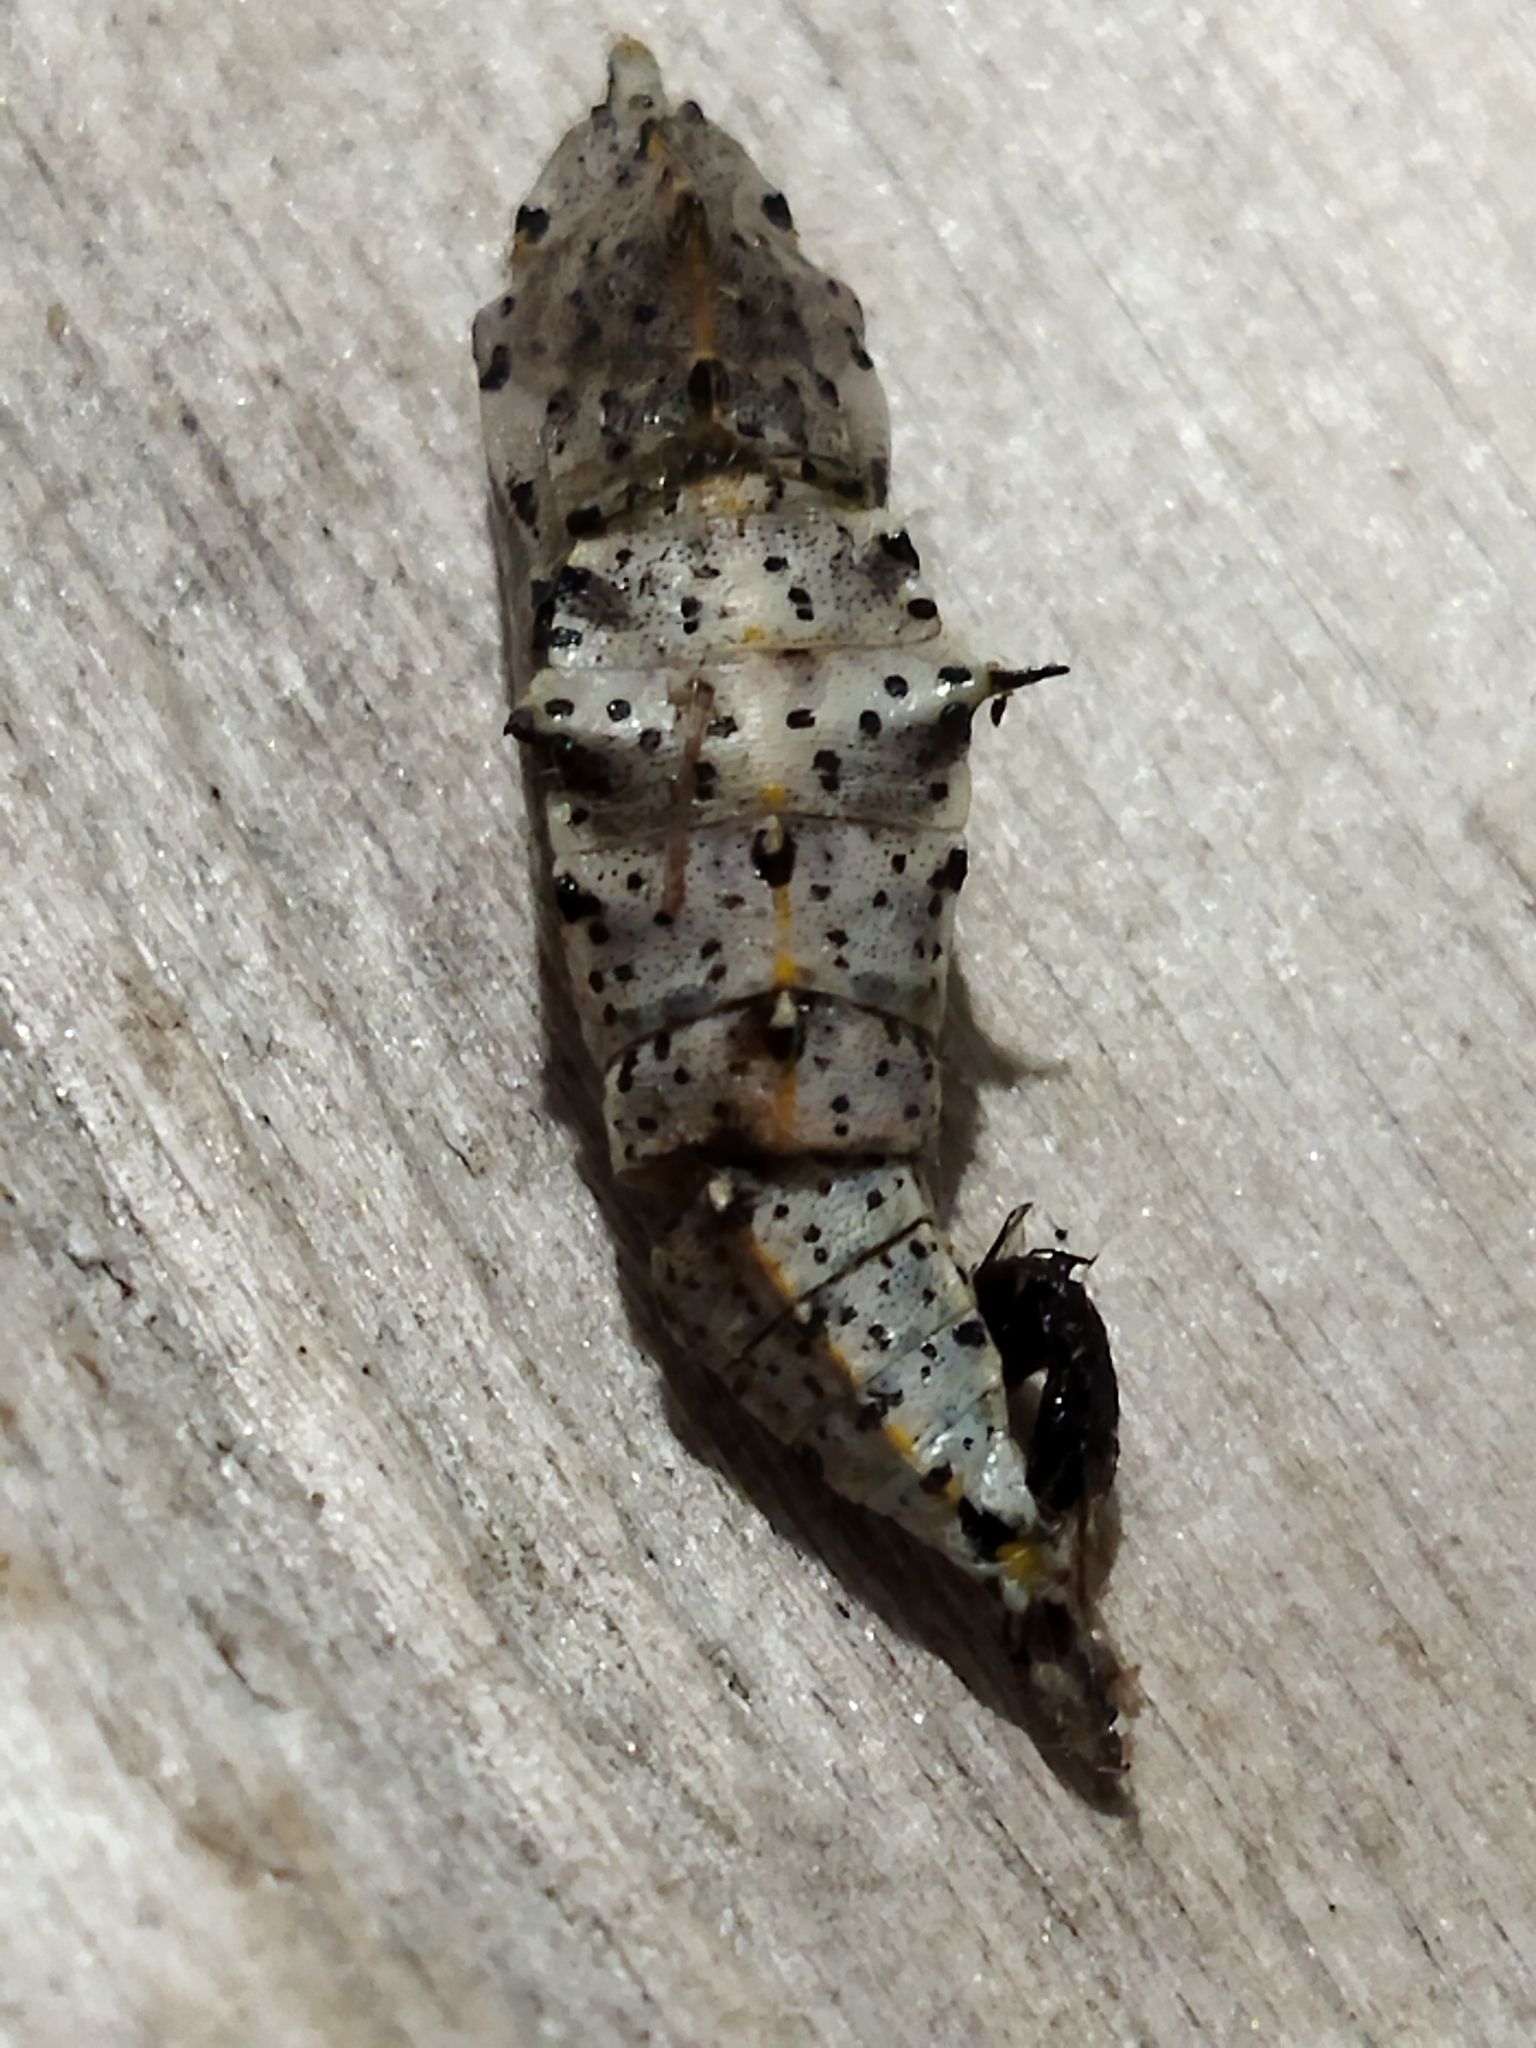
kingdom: Animalia
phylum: Arthropoda
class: Insecta
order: Lepidoptera
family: Pieridae
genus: Pieris
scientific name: Pieris brassicae
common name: Large white
